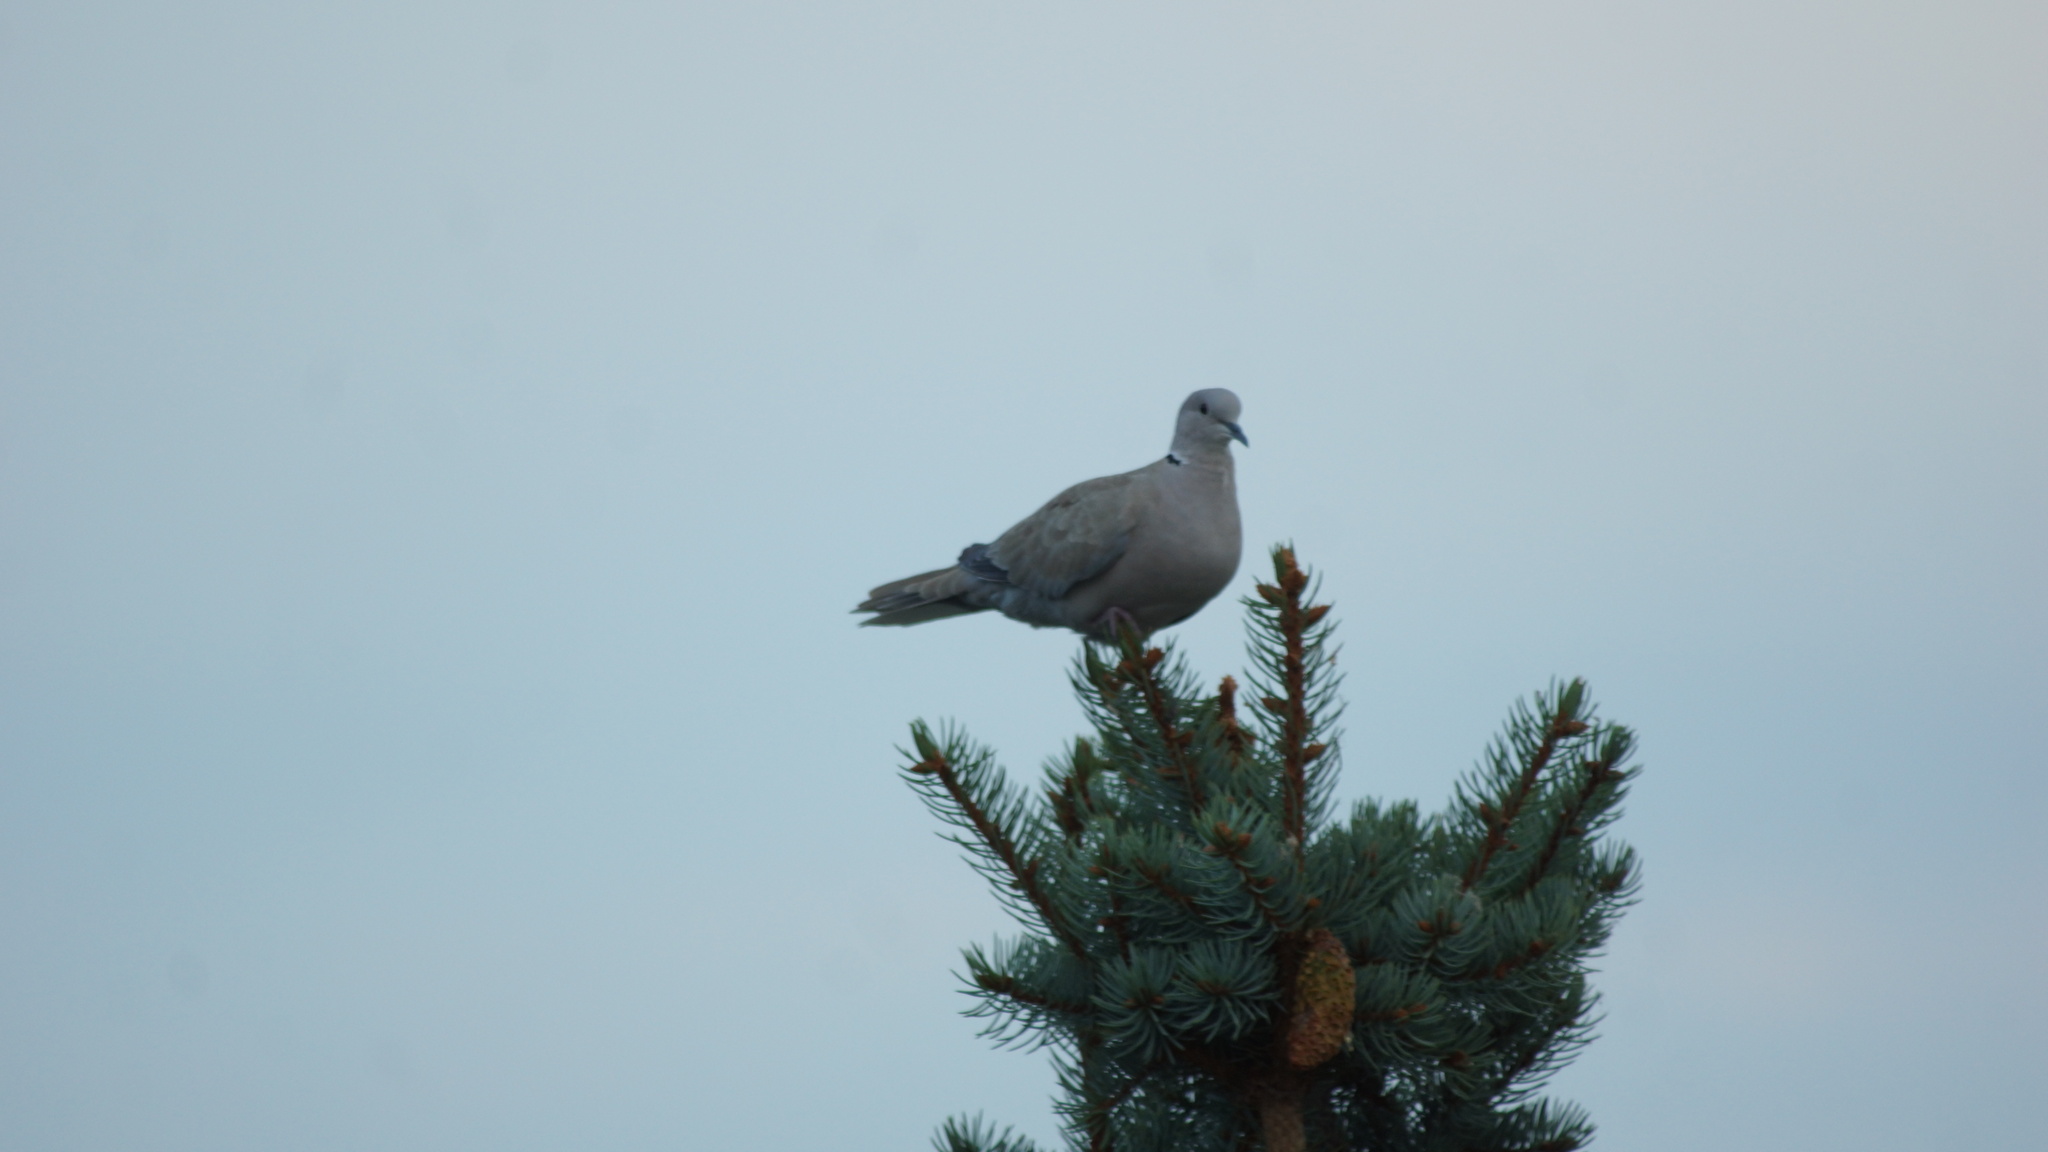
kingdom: Animalia
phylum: Chordata
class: Aves
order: Columbiformes
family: Columbidae
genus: Streptopelia
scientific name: Streptopelia decaocto
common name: Eurasian collared dove
